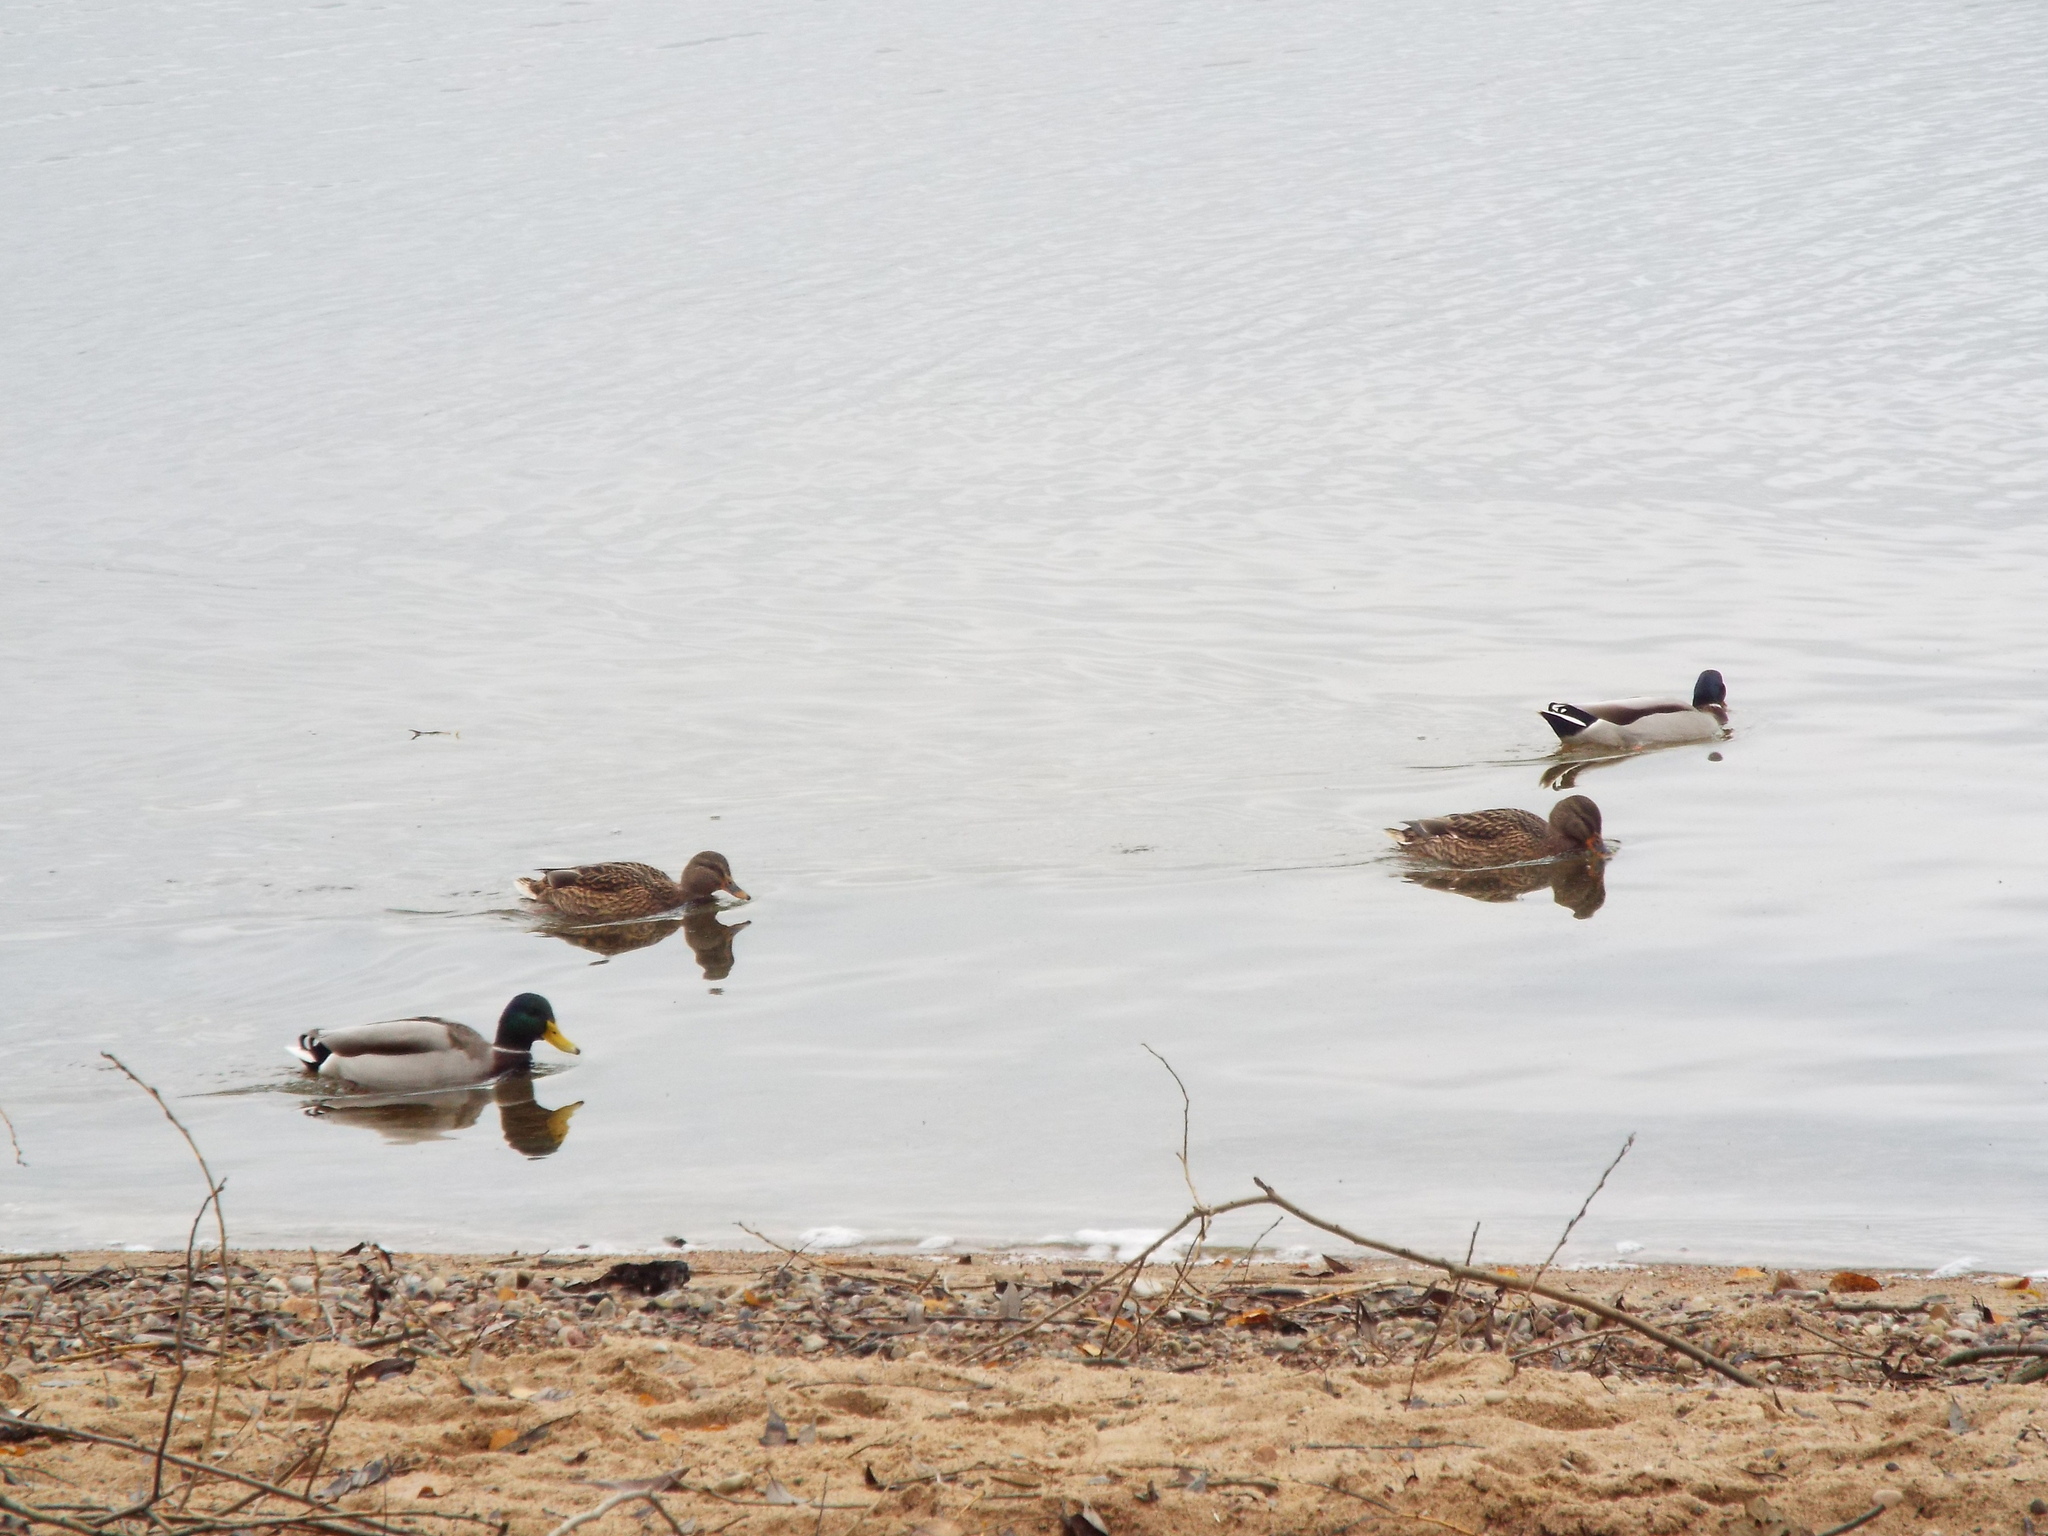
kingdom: Animalia
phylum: Chordata
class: Aves
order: Anseriformes
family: Anatidae
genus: Anas
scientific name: Anas platyrhynchos
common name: Mallard
